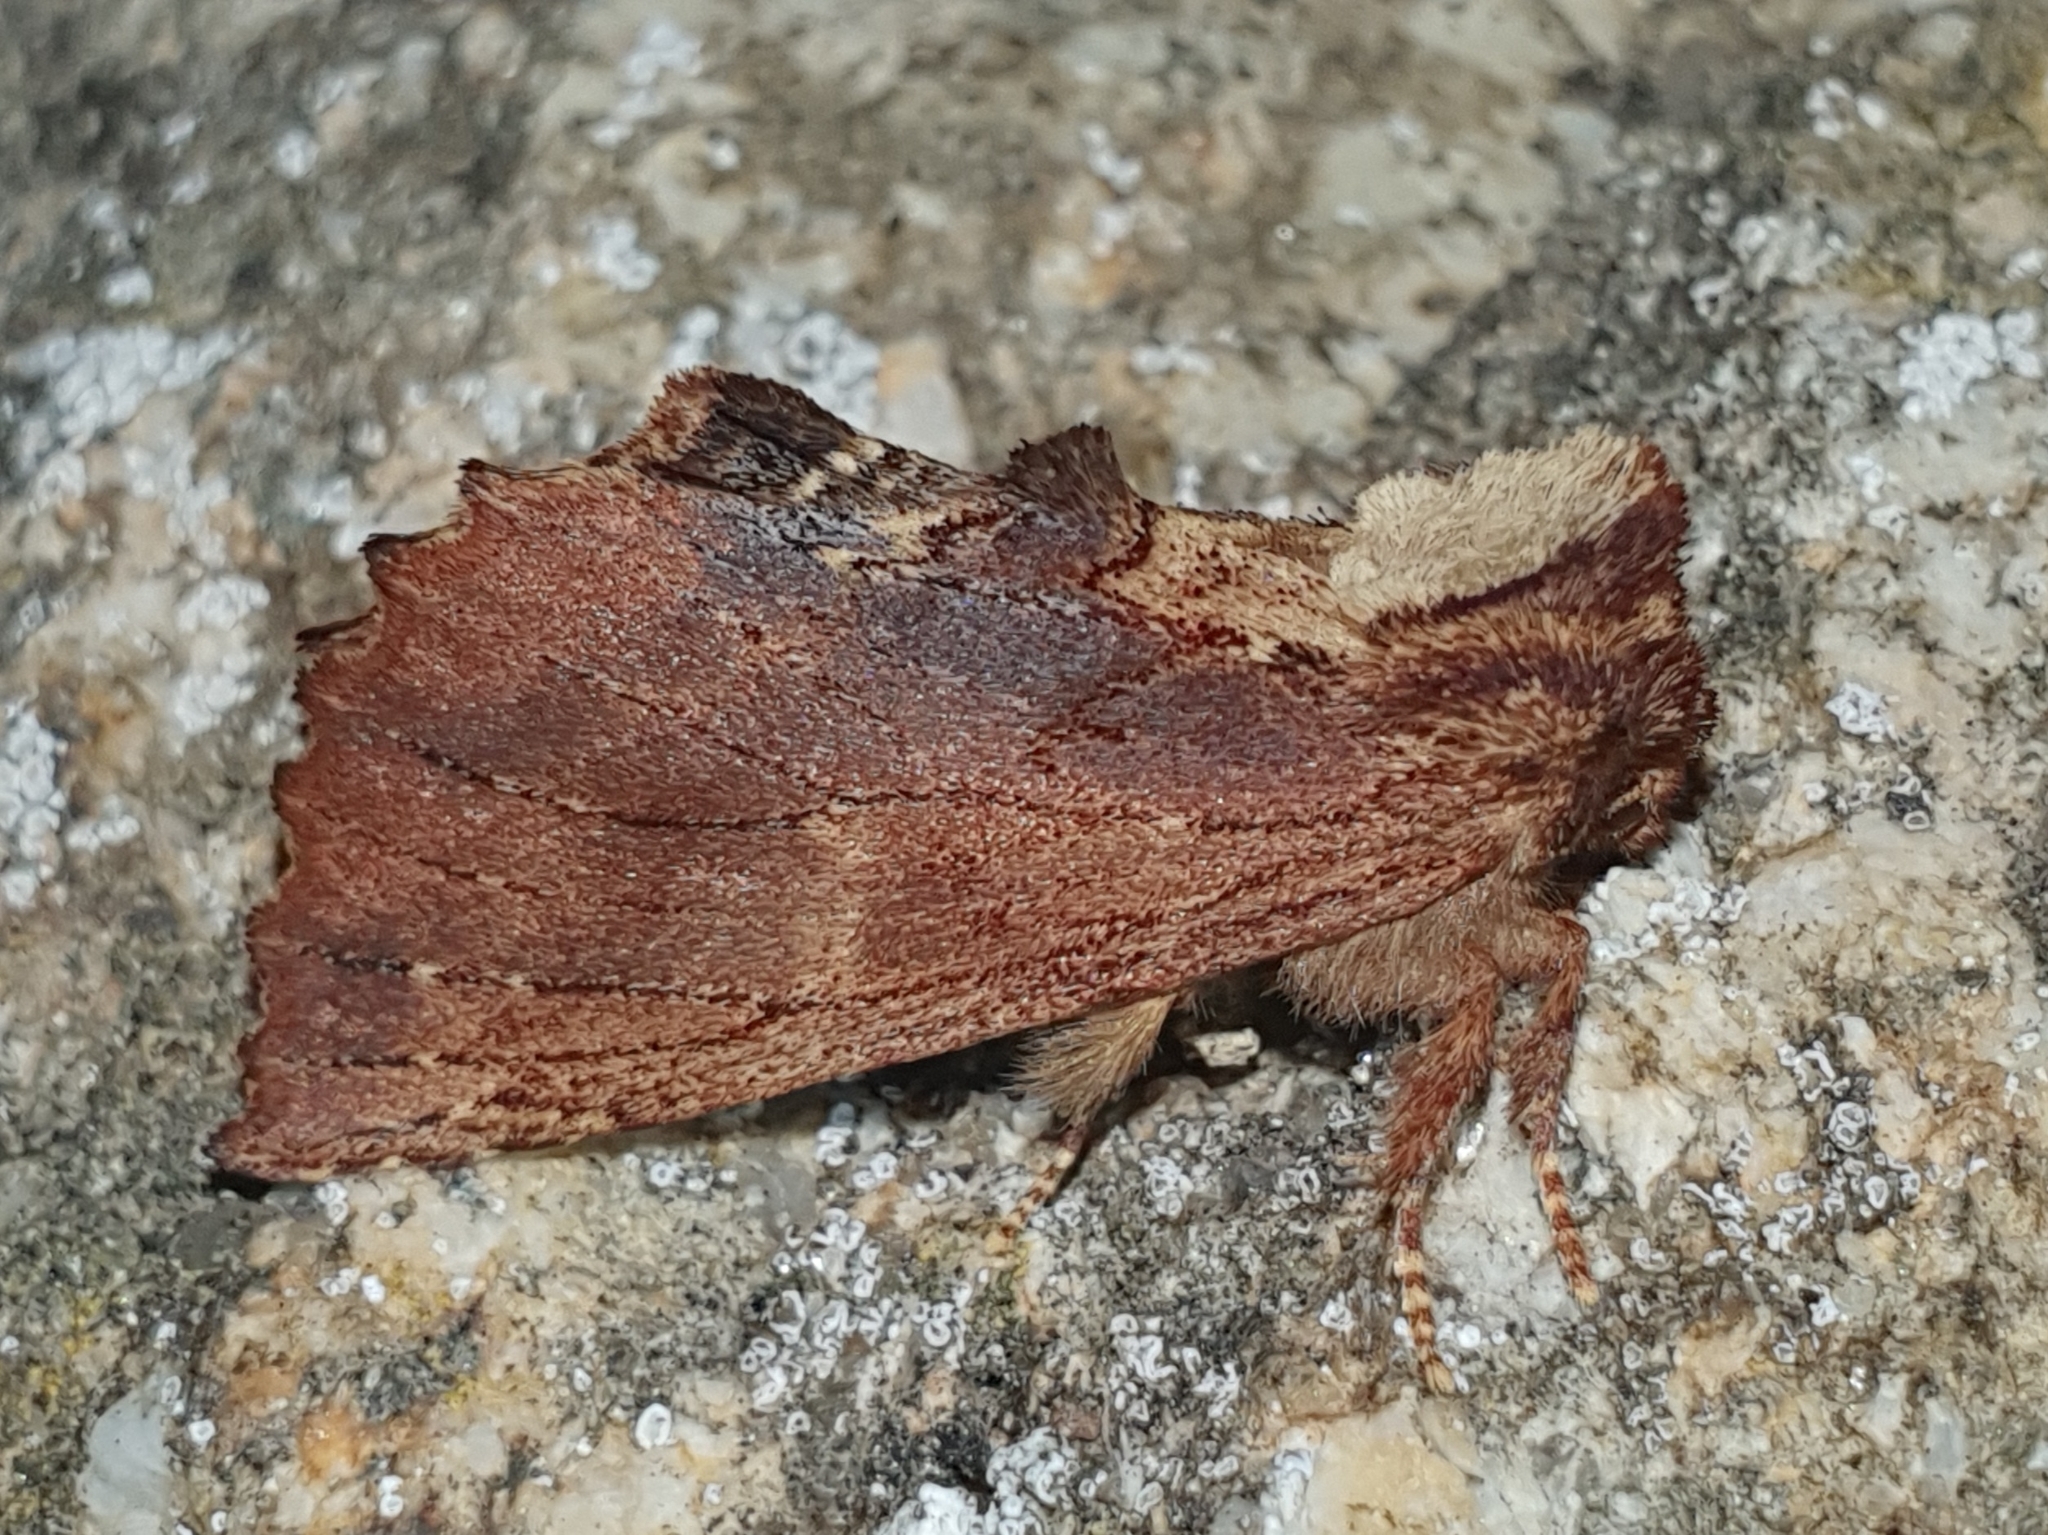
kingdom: Animalia
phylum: Arthropoda
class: Insecta
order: Lepidoptera
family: Notodontidae
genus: Ptilodon
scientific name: Ptilodon capucina
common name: Coxcomb prominent
